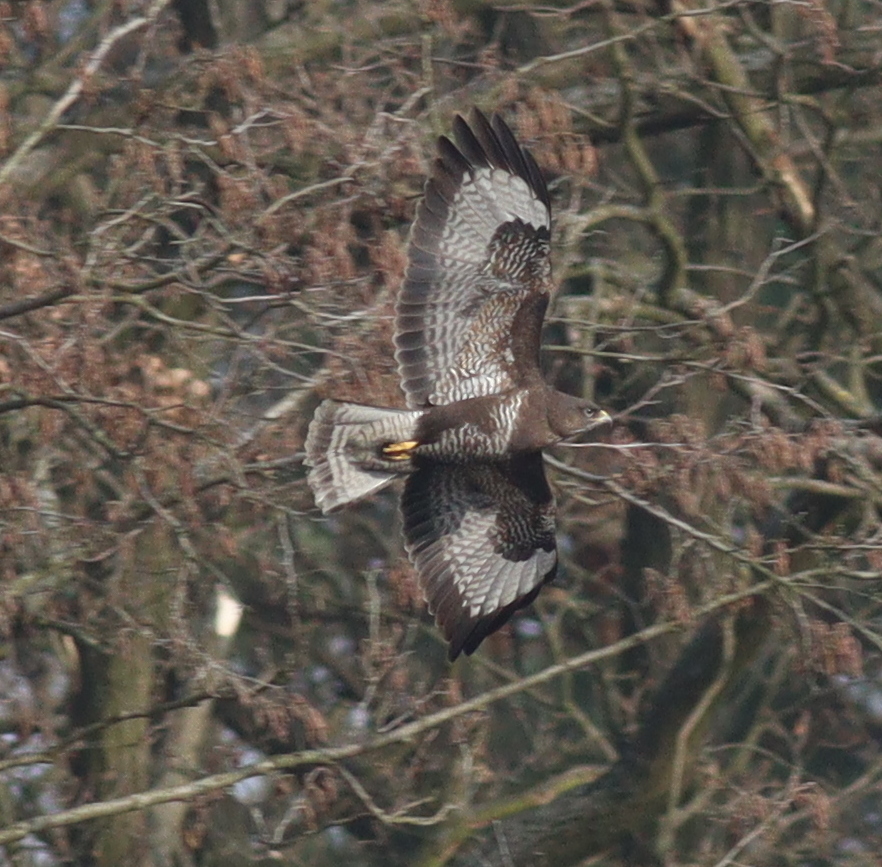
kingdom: Animalia
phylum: Chordata
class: Aves
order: Accipitriformes
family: Accipitridae
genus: Buteo
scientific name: Buteo buteo
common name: Common buzzard
